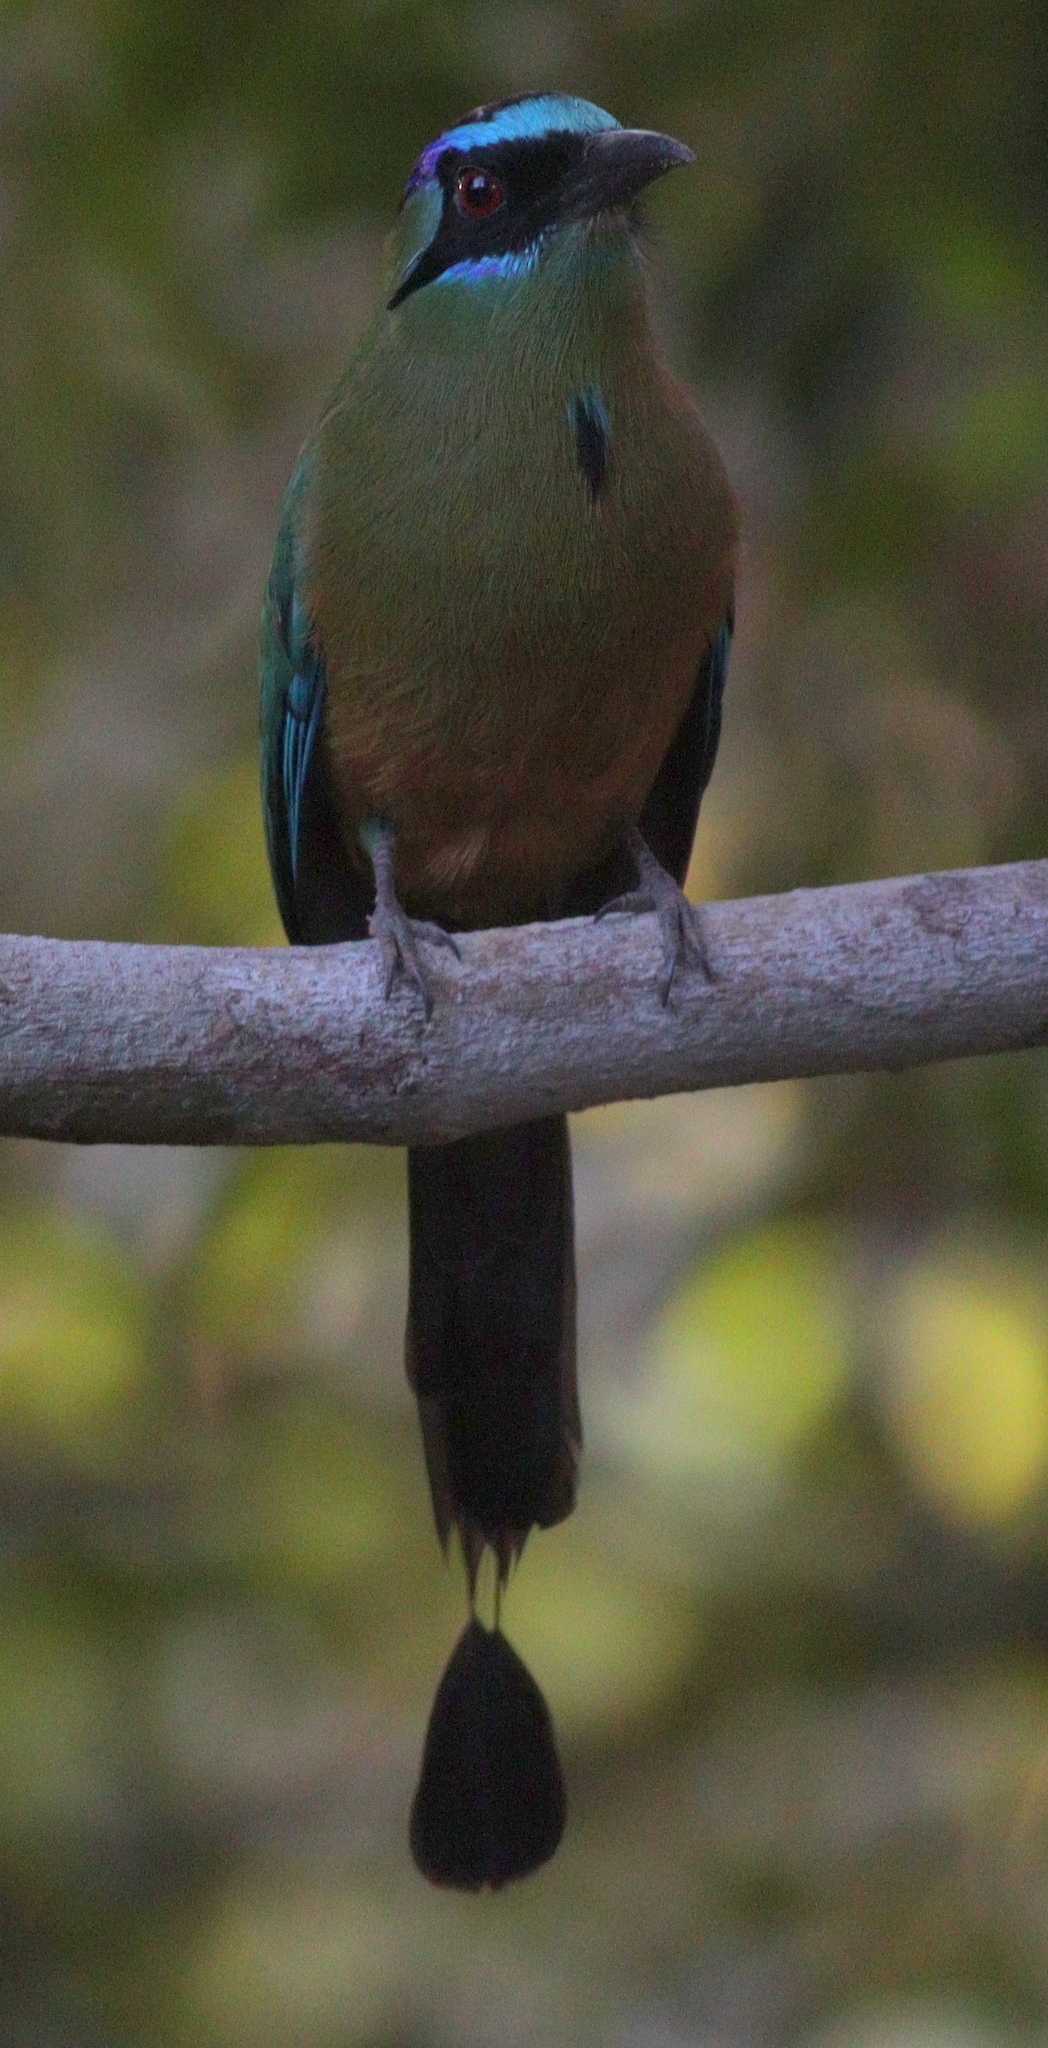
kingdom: Animalia
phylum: Chordata
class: Aves
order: Coraciiformes
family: Momotidae
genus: Momotus
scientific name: Momotus momota
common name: Amazonian motmot
